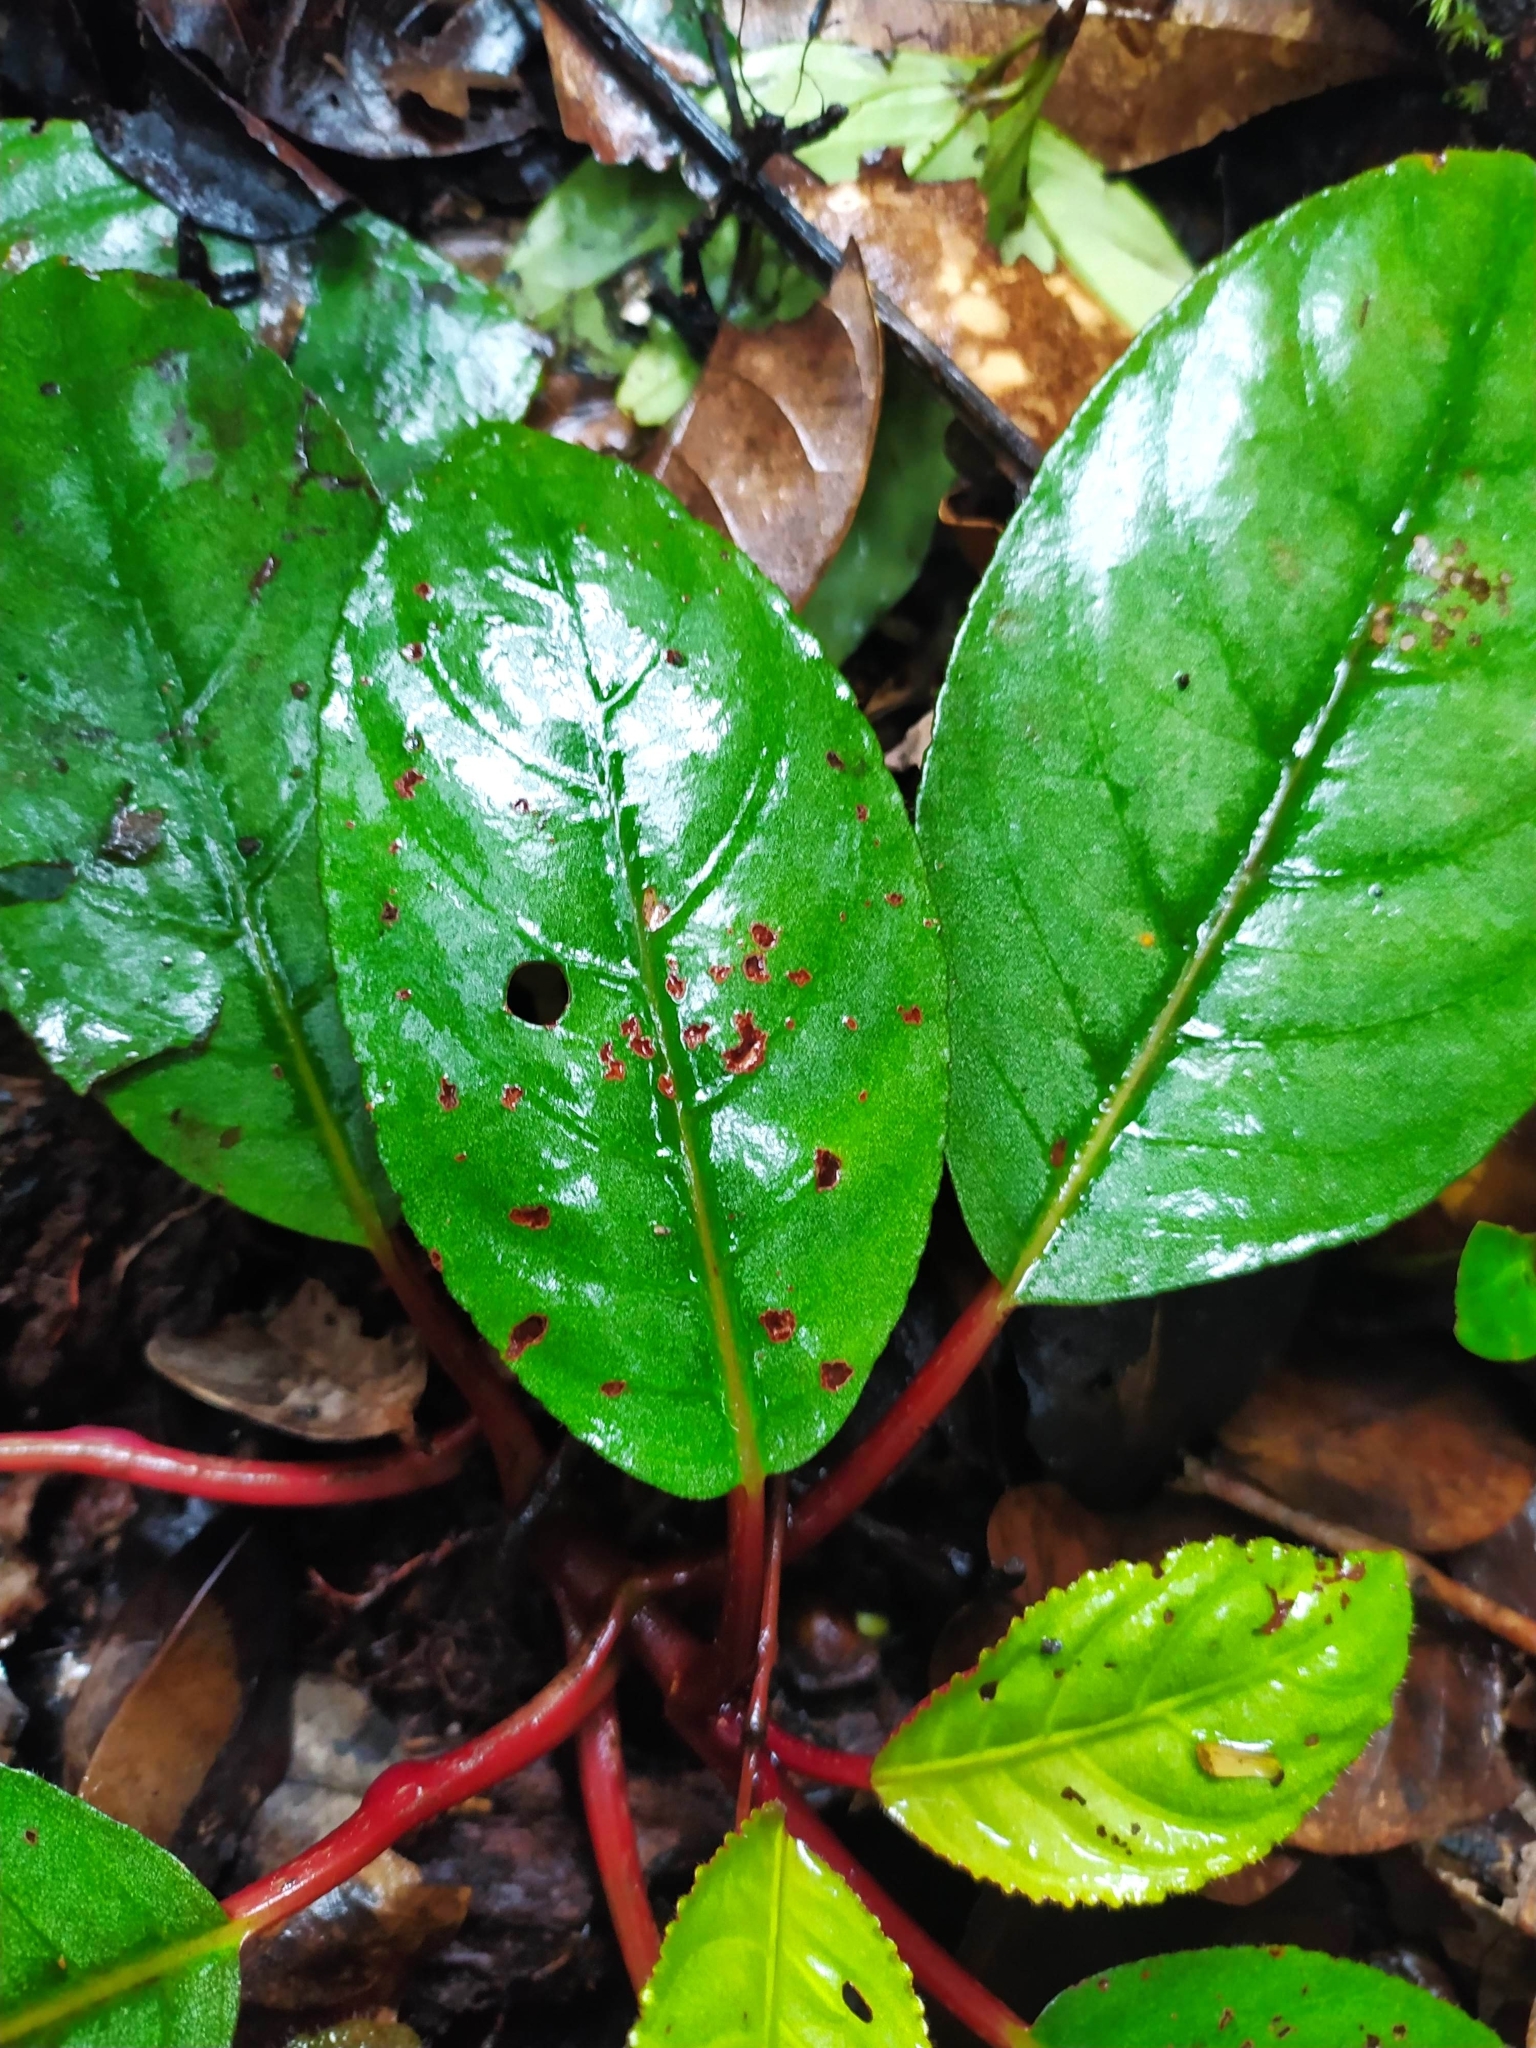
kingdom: Plantae
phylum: Tracheophyta
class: Magnoliopsida
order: Lamiales
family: Gesneriaceae
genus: Centrosolenia
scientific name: Centrosolenia densa
